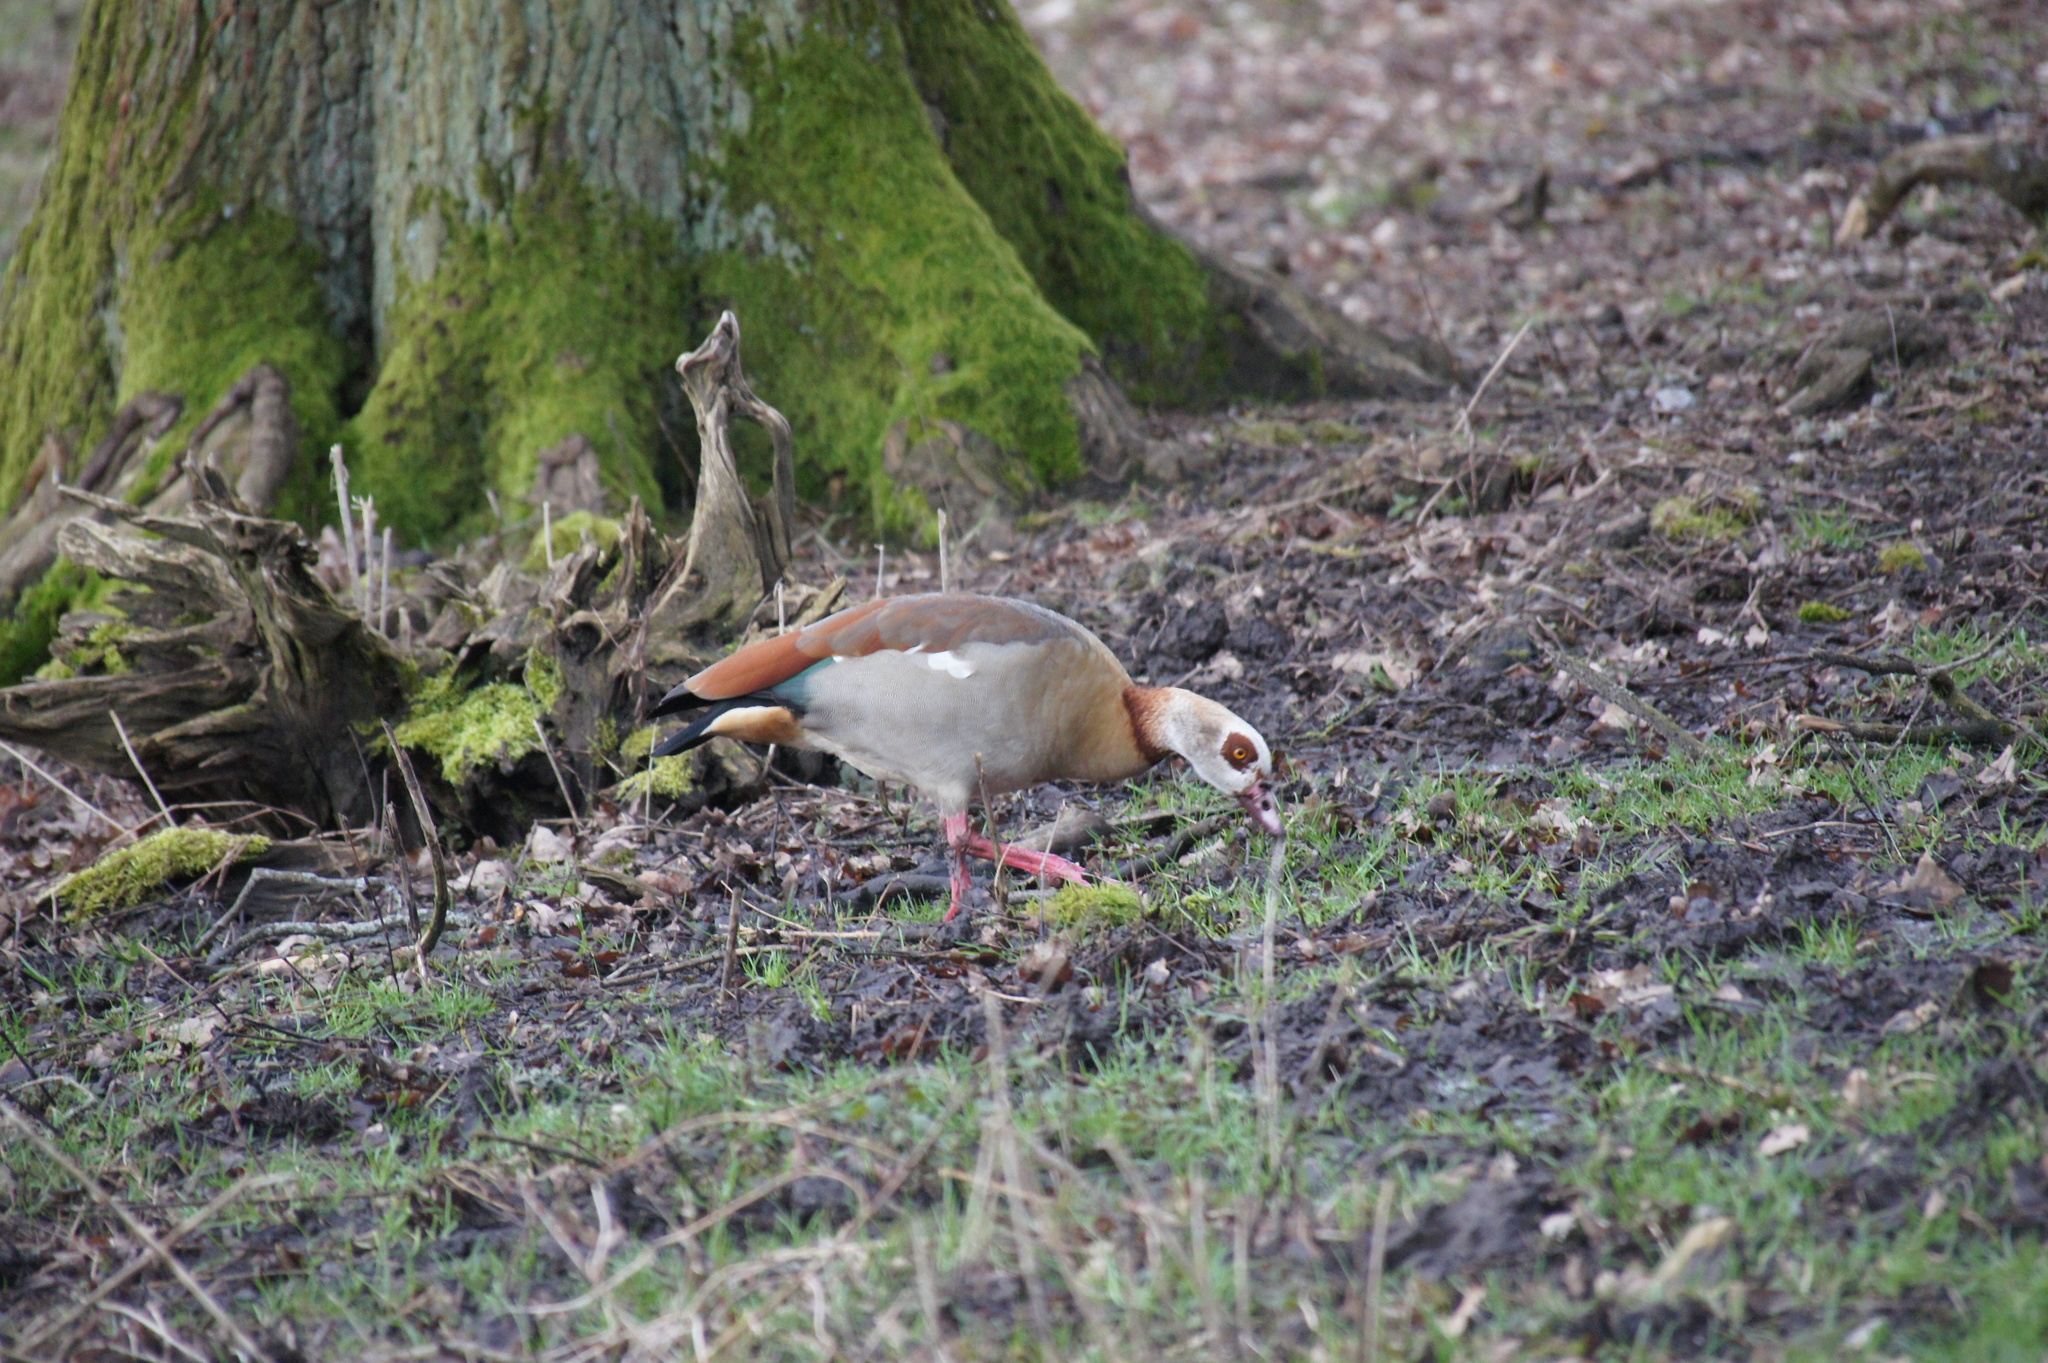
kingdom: Animalia
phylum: Chordata
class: Aves
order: Anseriformes
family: Anatidae
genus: Alopochen
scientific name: Alopochen aegyptiaca
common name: Egyptian goose
